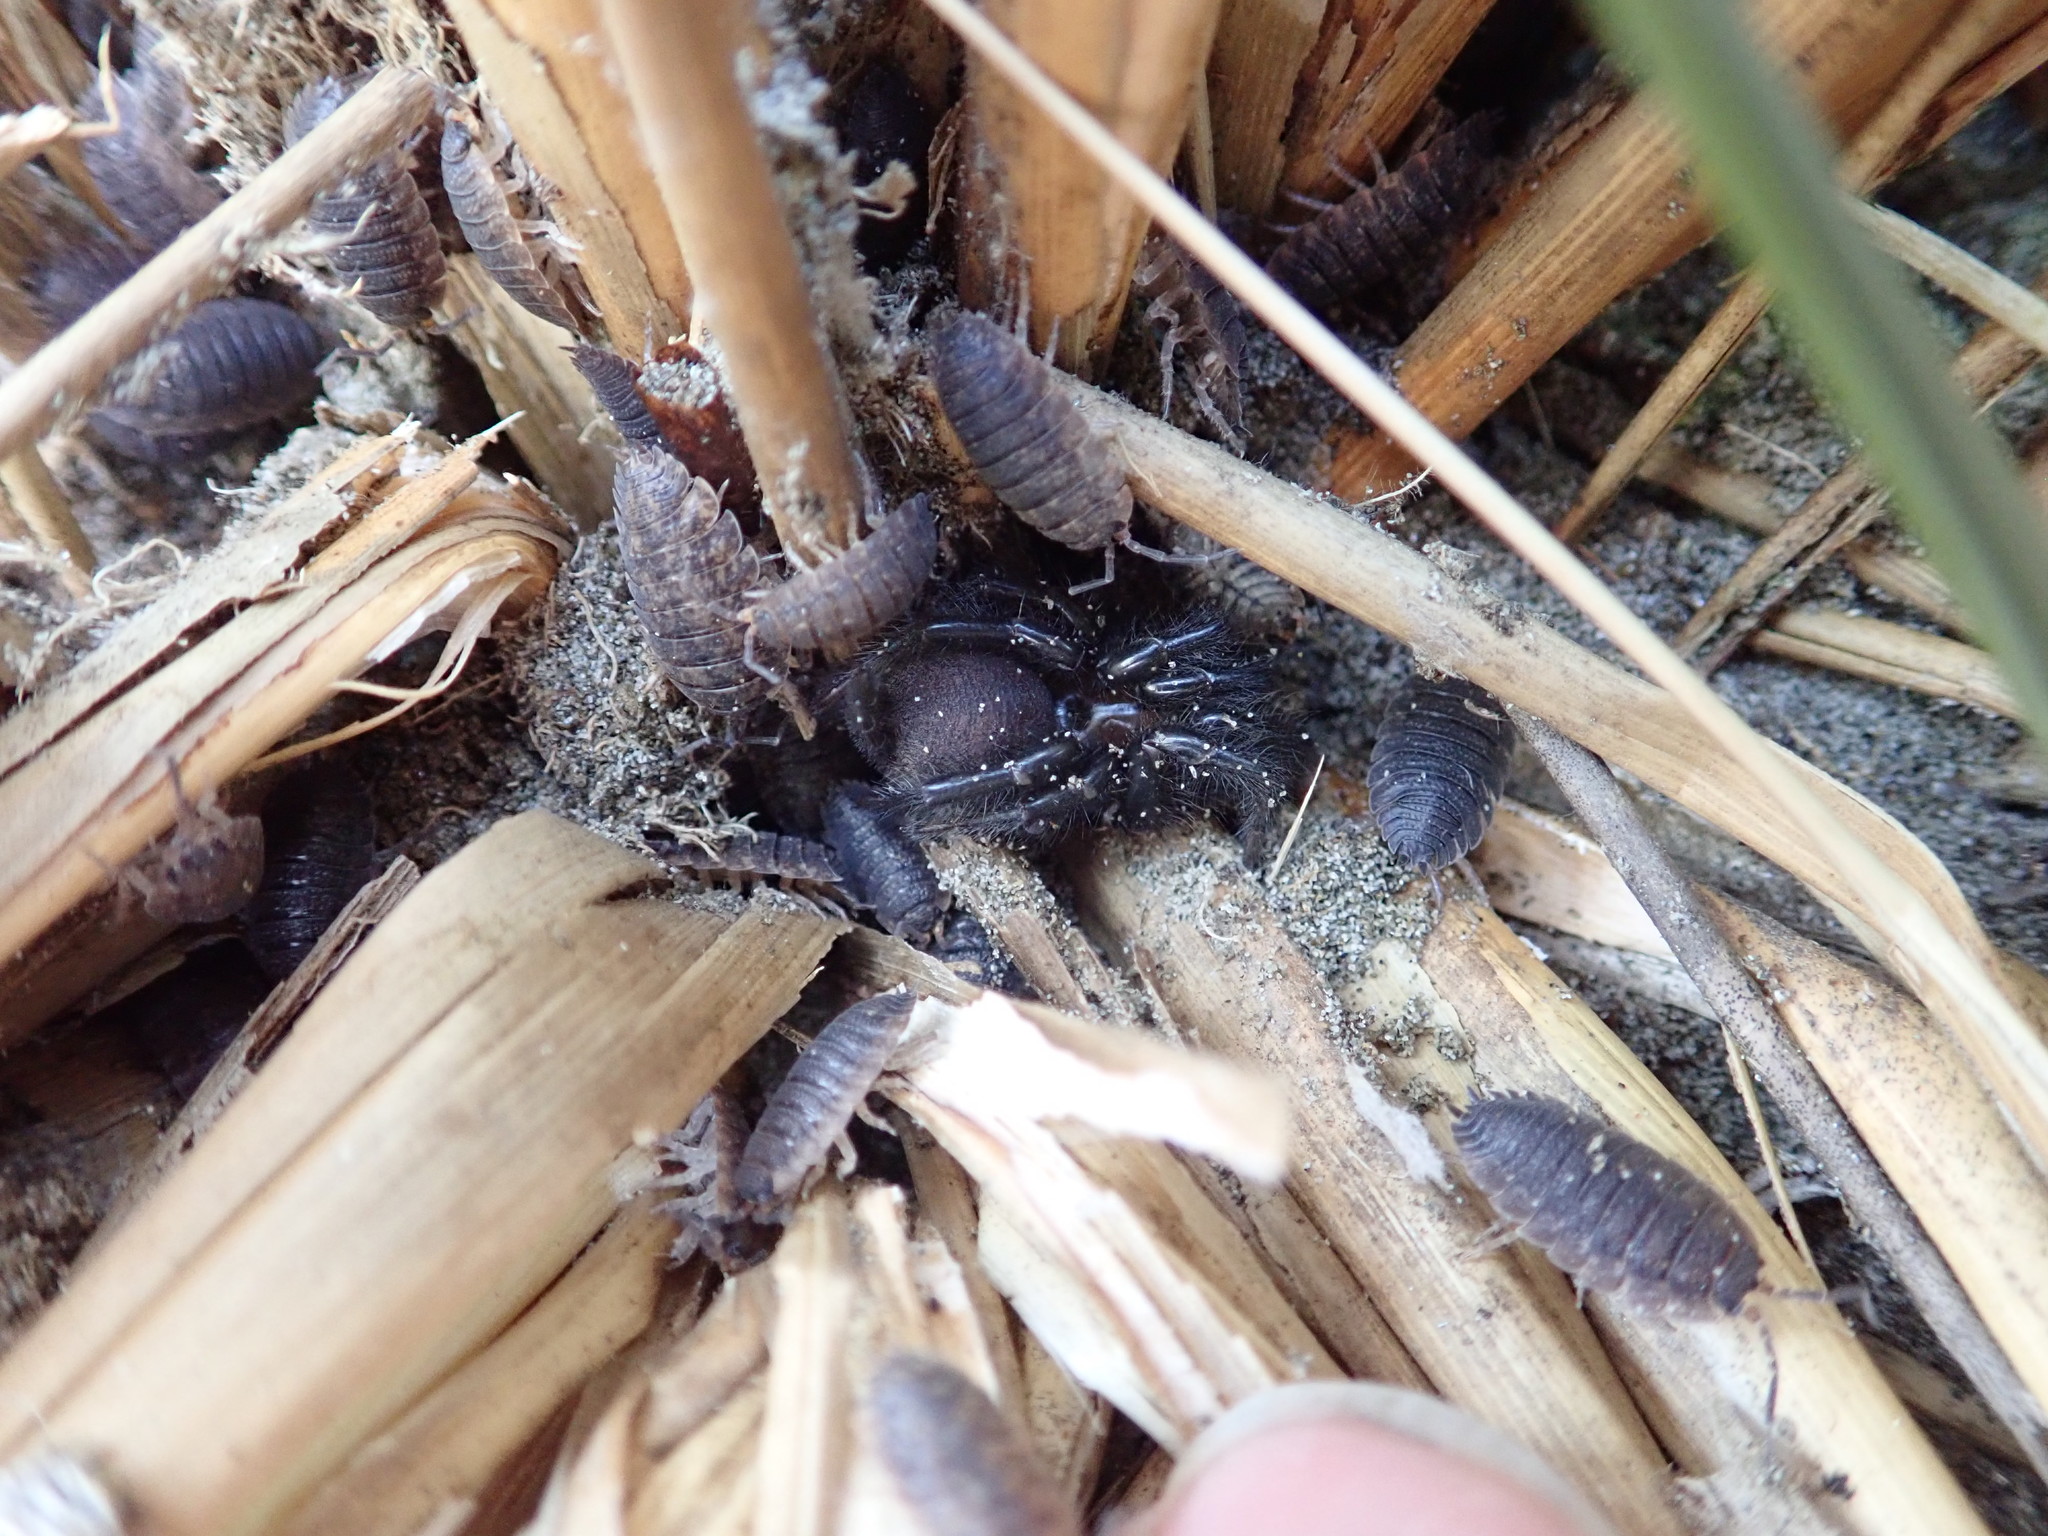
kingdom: Animalia
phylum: Arthropoda
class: Arachnida
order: Araneae
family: Porrhothelidae
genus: Porrhothele
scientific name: Porrhothele antipodiana
